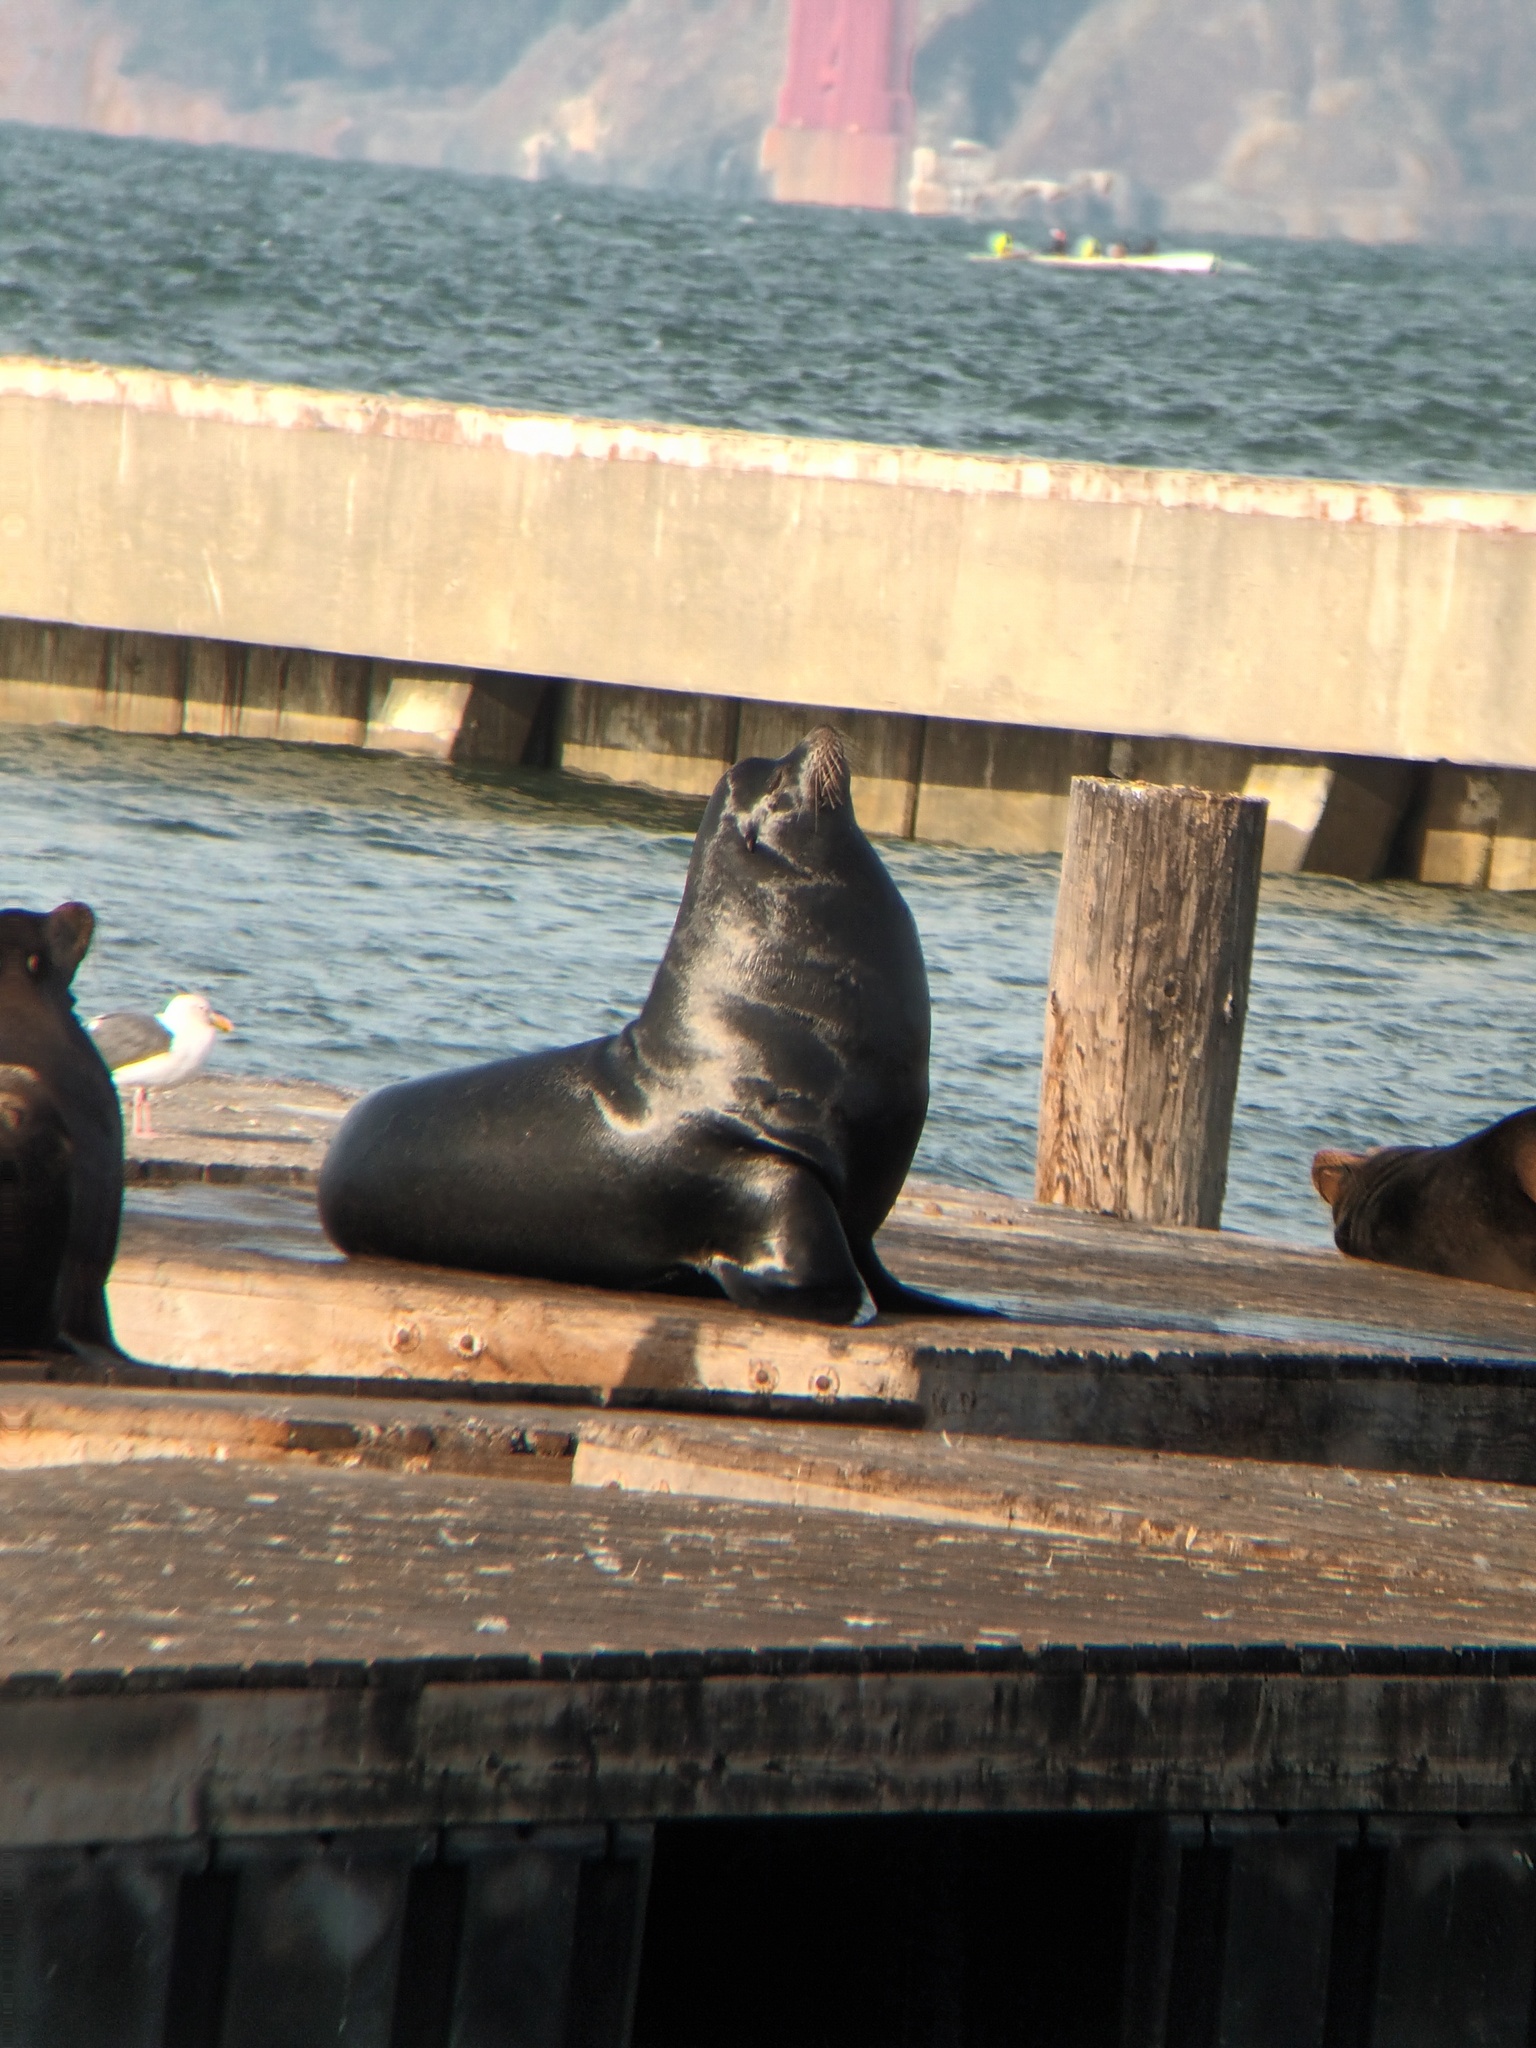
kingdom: Animalia
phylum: Chordata
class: Mammalia
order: Carnivora
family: Otariidae
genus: Zalophus
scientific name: Zalophus californianus
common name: California sea lion
